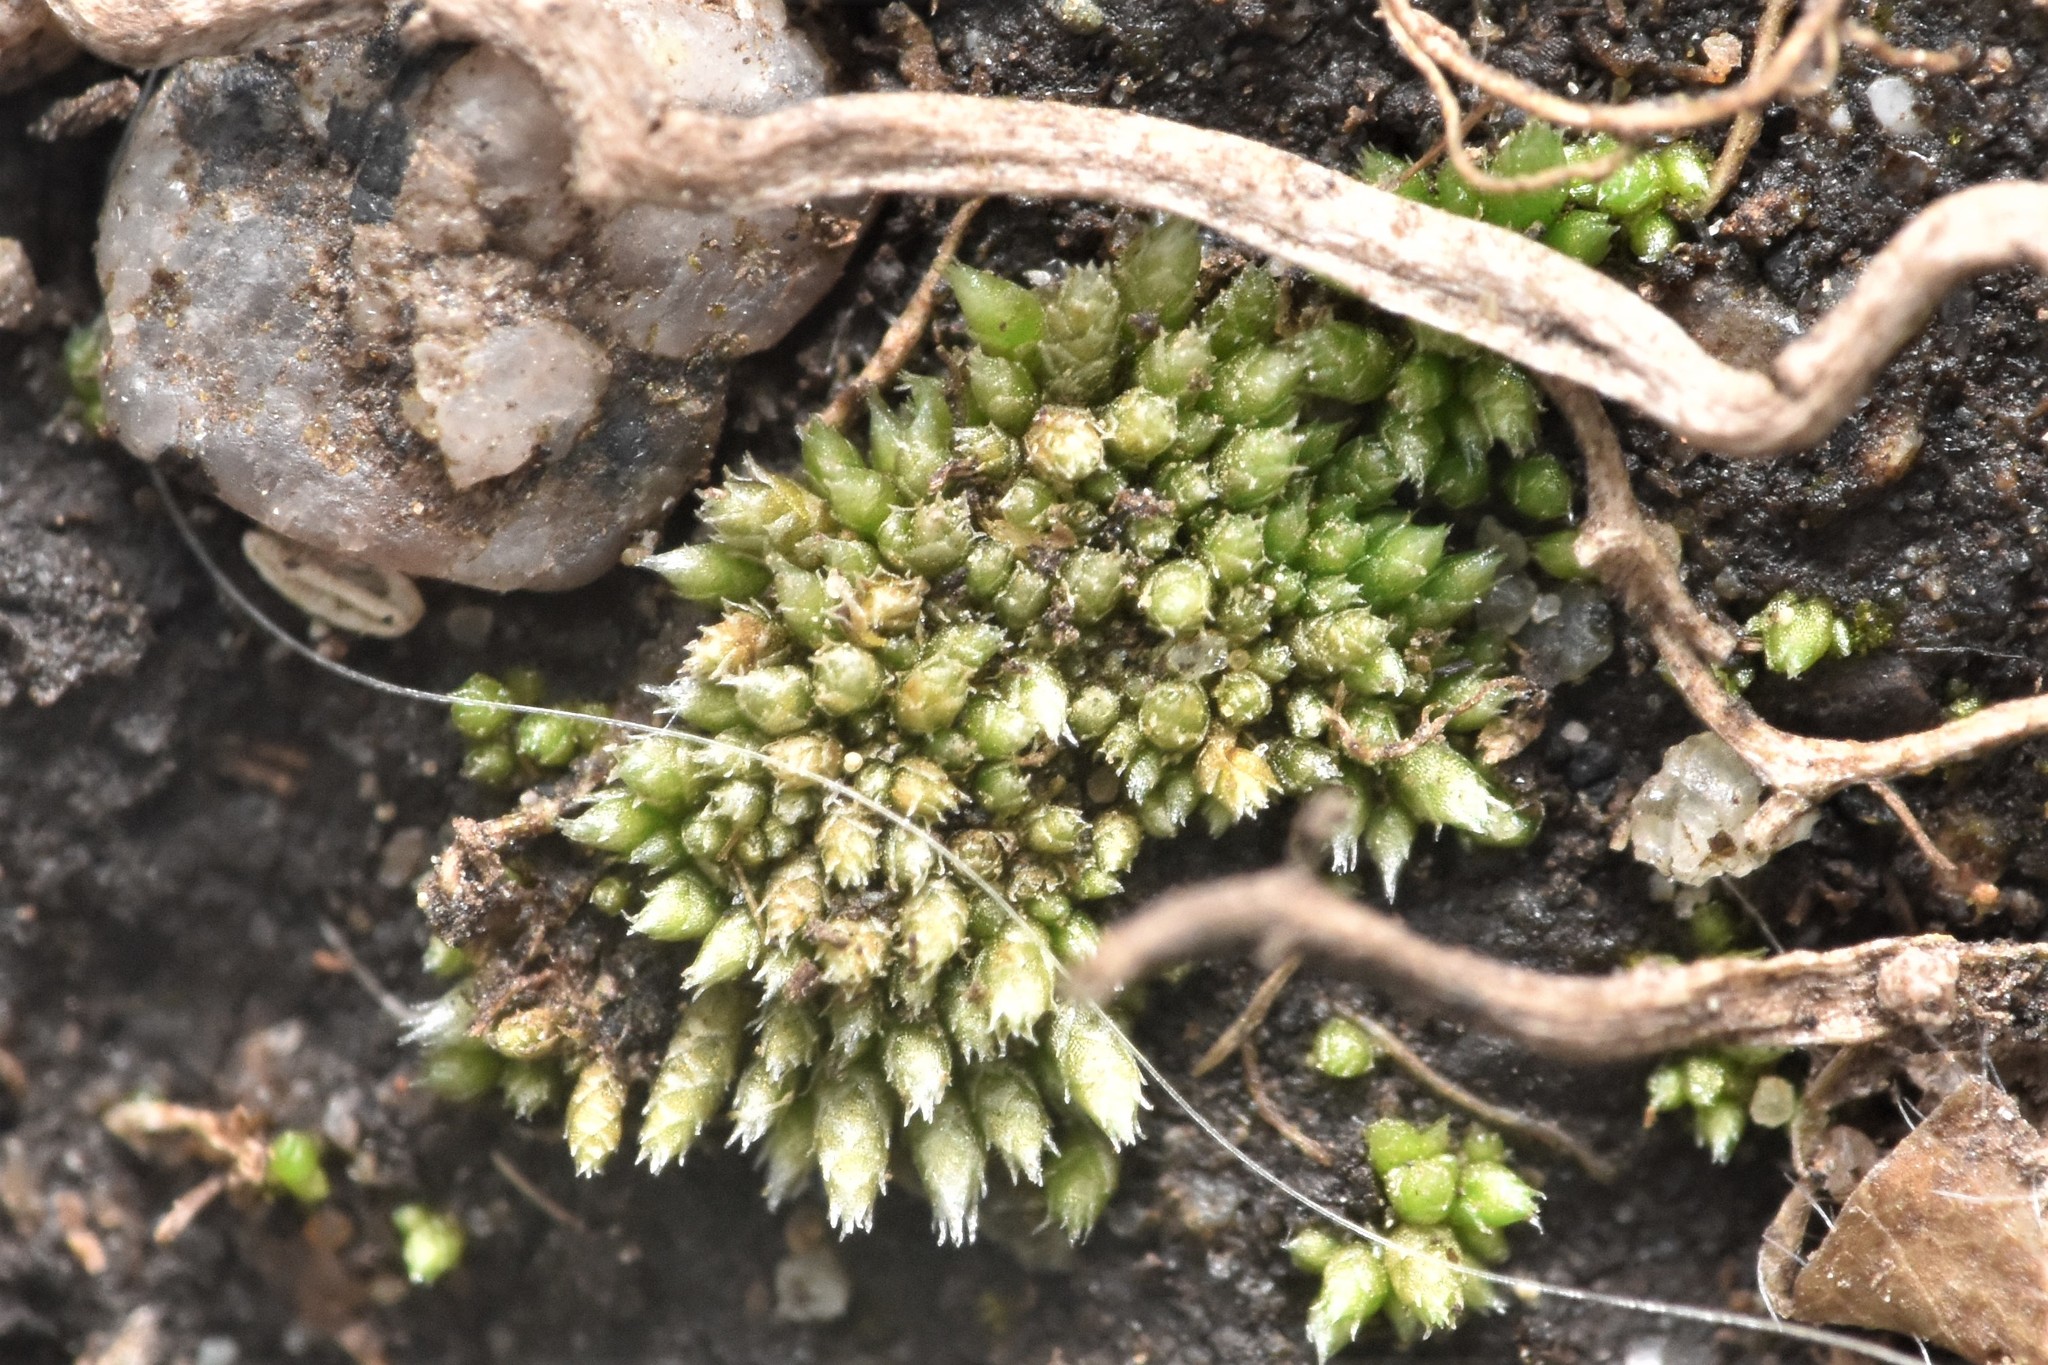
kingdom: Plantae
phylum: Bryophyta
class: Bryopsida
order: Bryales
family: Bryaceae
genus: Bryum
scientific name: Bryum argenteum
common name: Silver-moss
